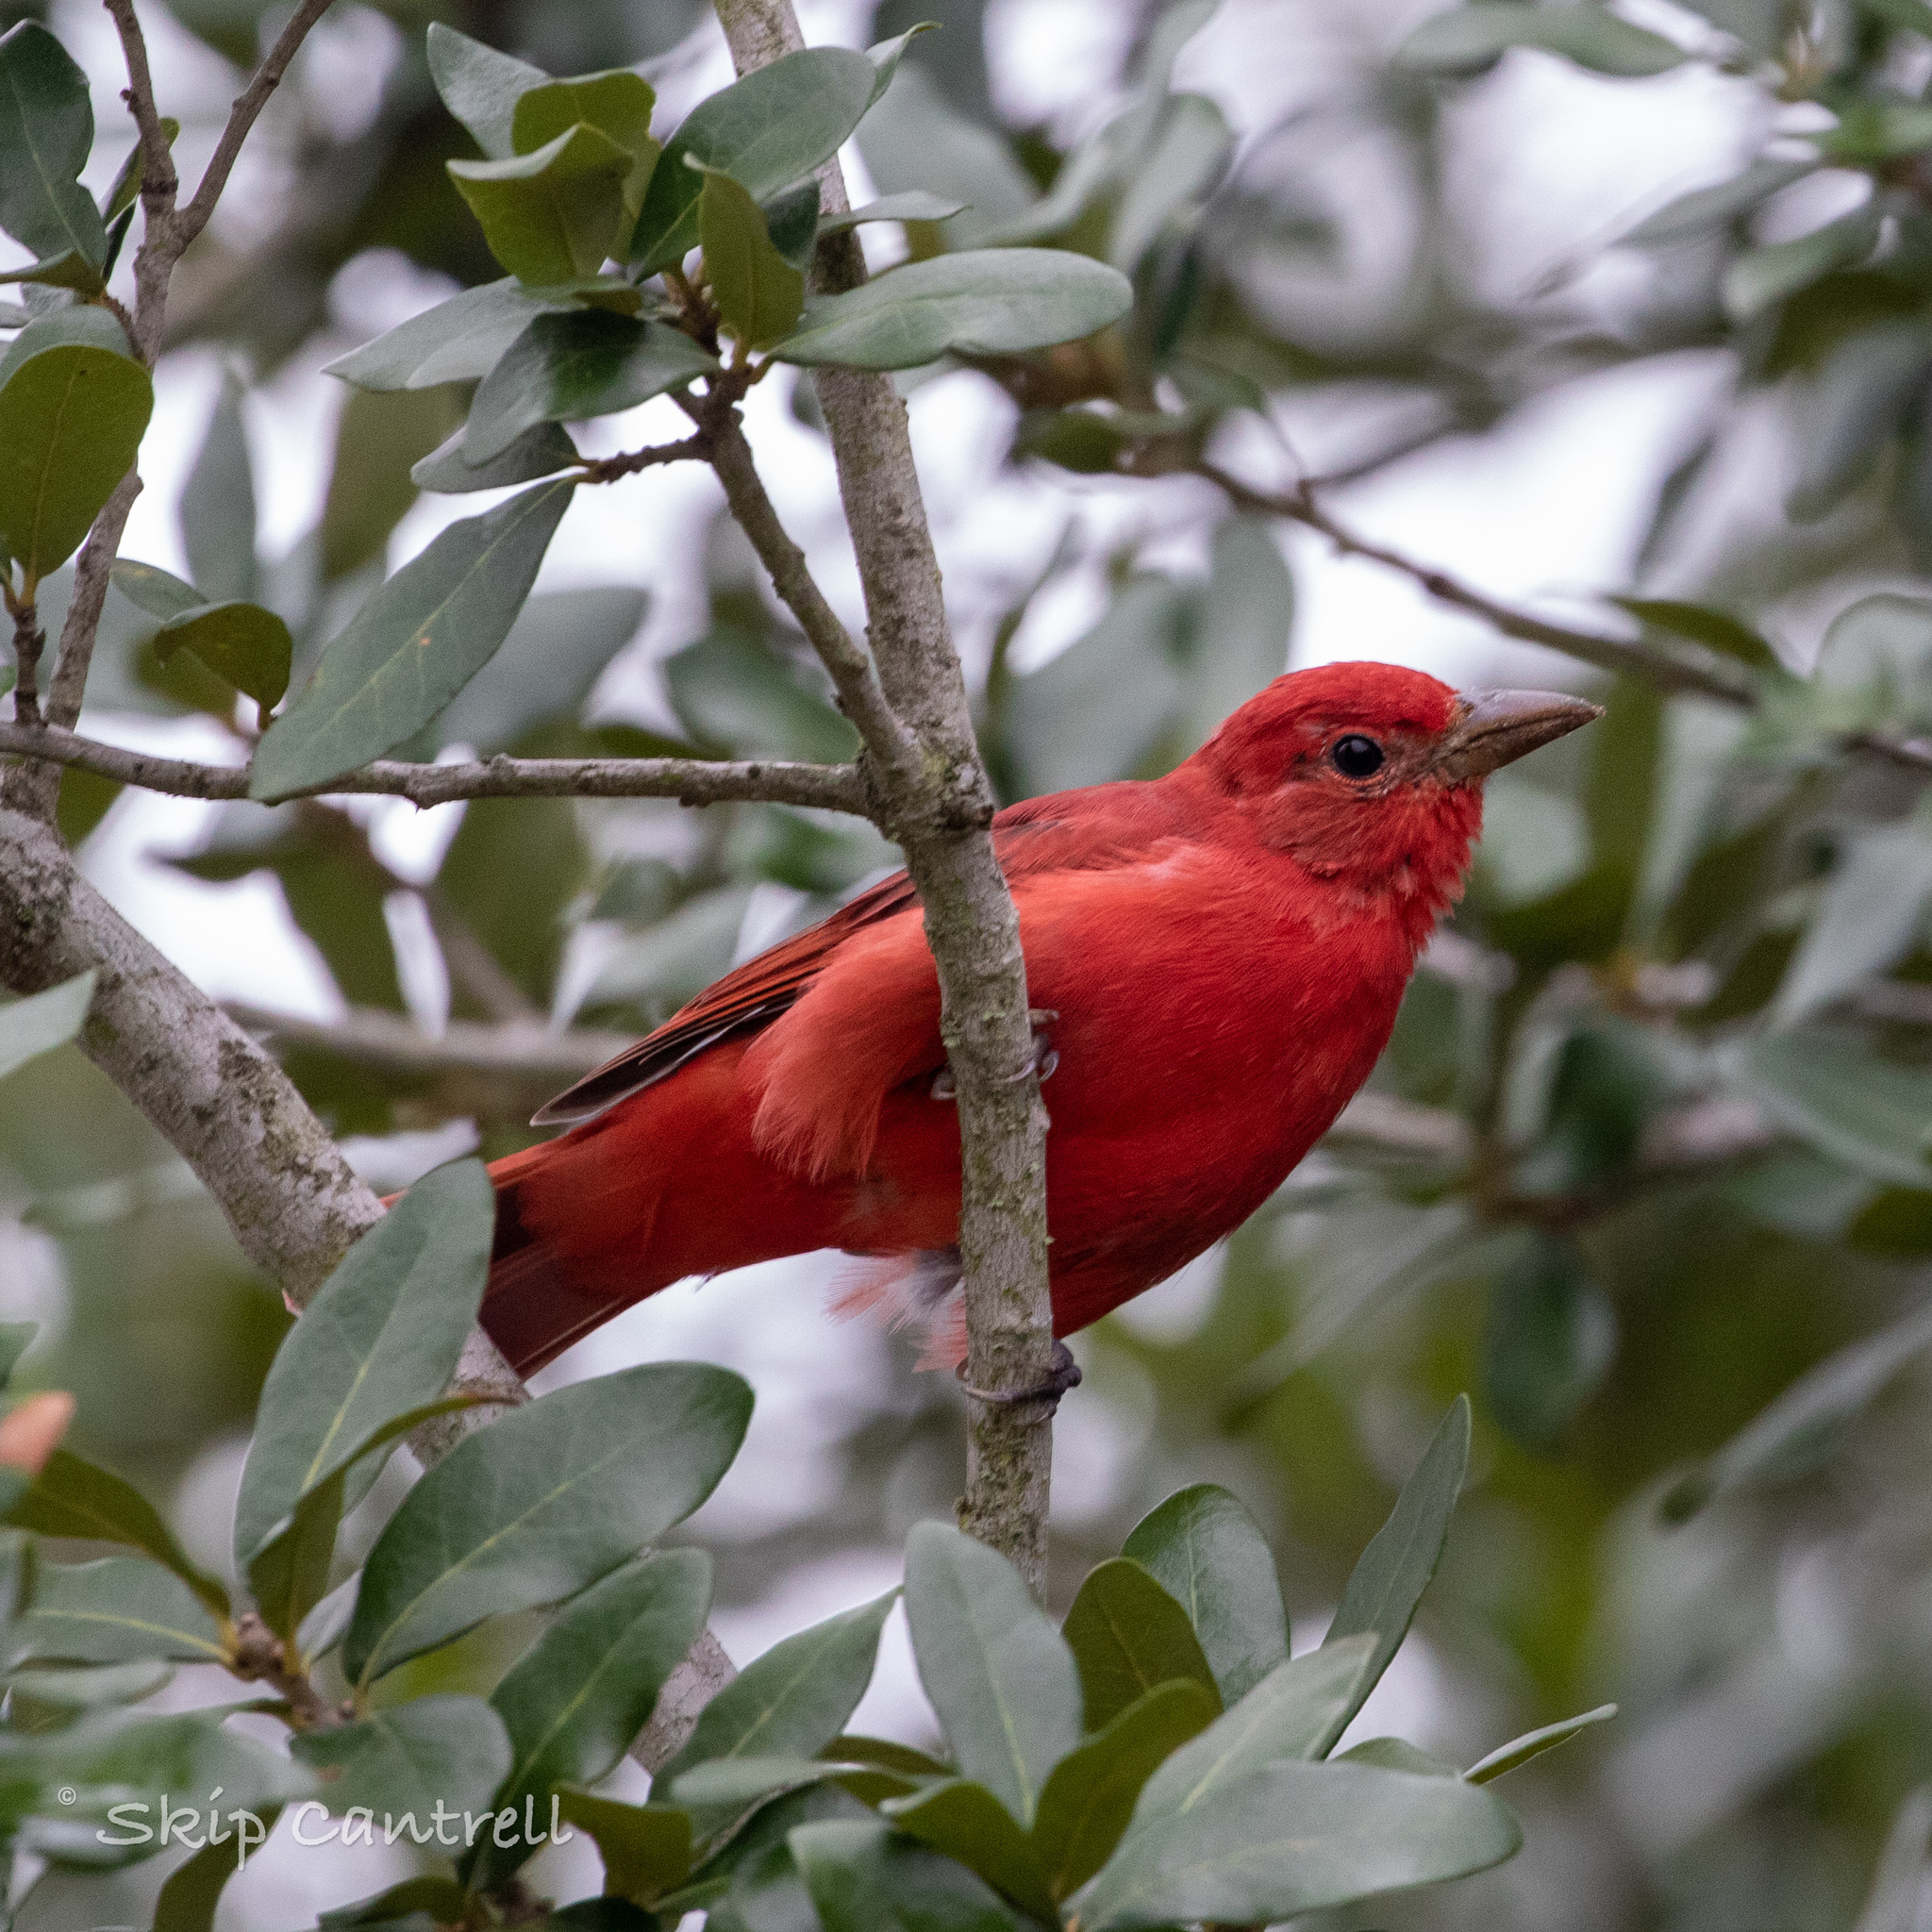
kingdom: Animalia
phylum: Chordata
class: Aves
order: Passeriformes
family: Cardinalidae
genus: Piranga
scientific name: Piranga rubra
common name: Summer tanager
